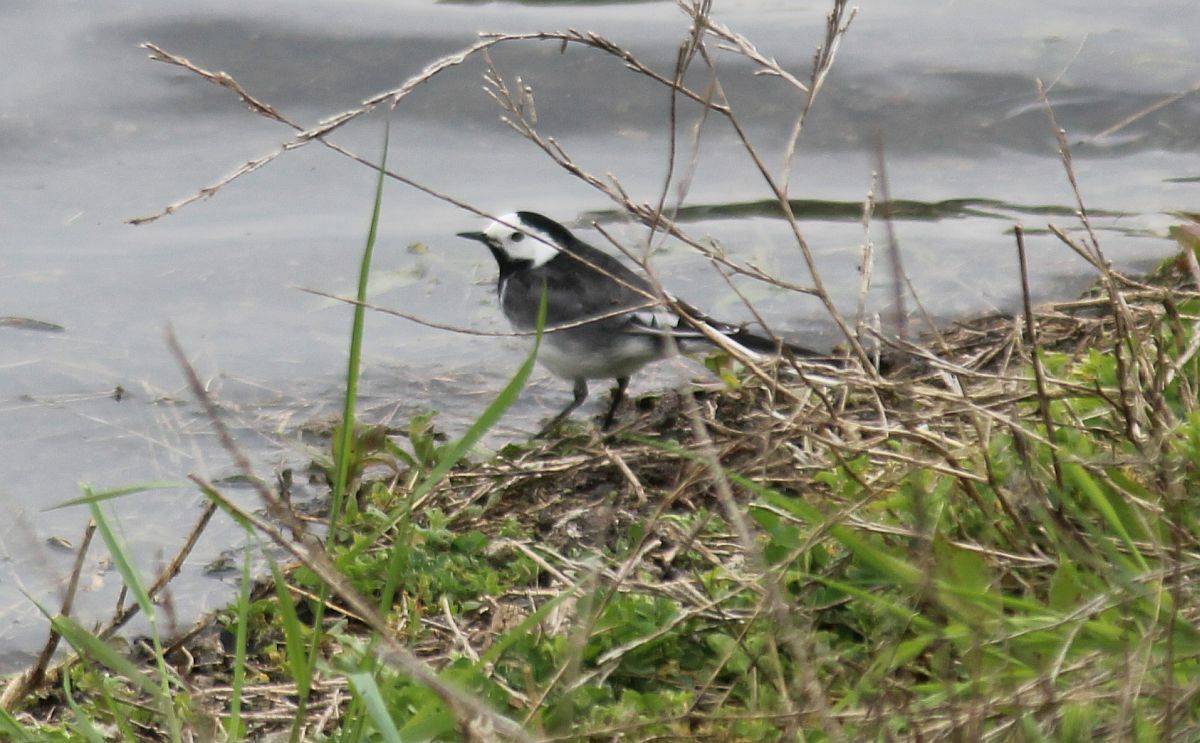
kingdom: Animalia
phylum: Chordata
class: Aves
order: Passeriformes
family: Motacillidae
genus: Motacilla
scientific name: Motacilla alba
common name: White wagtail
